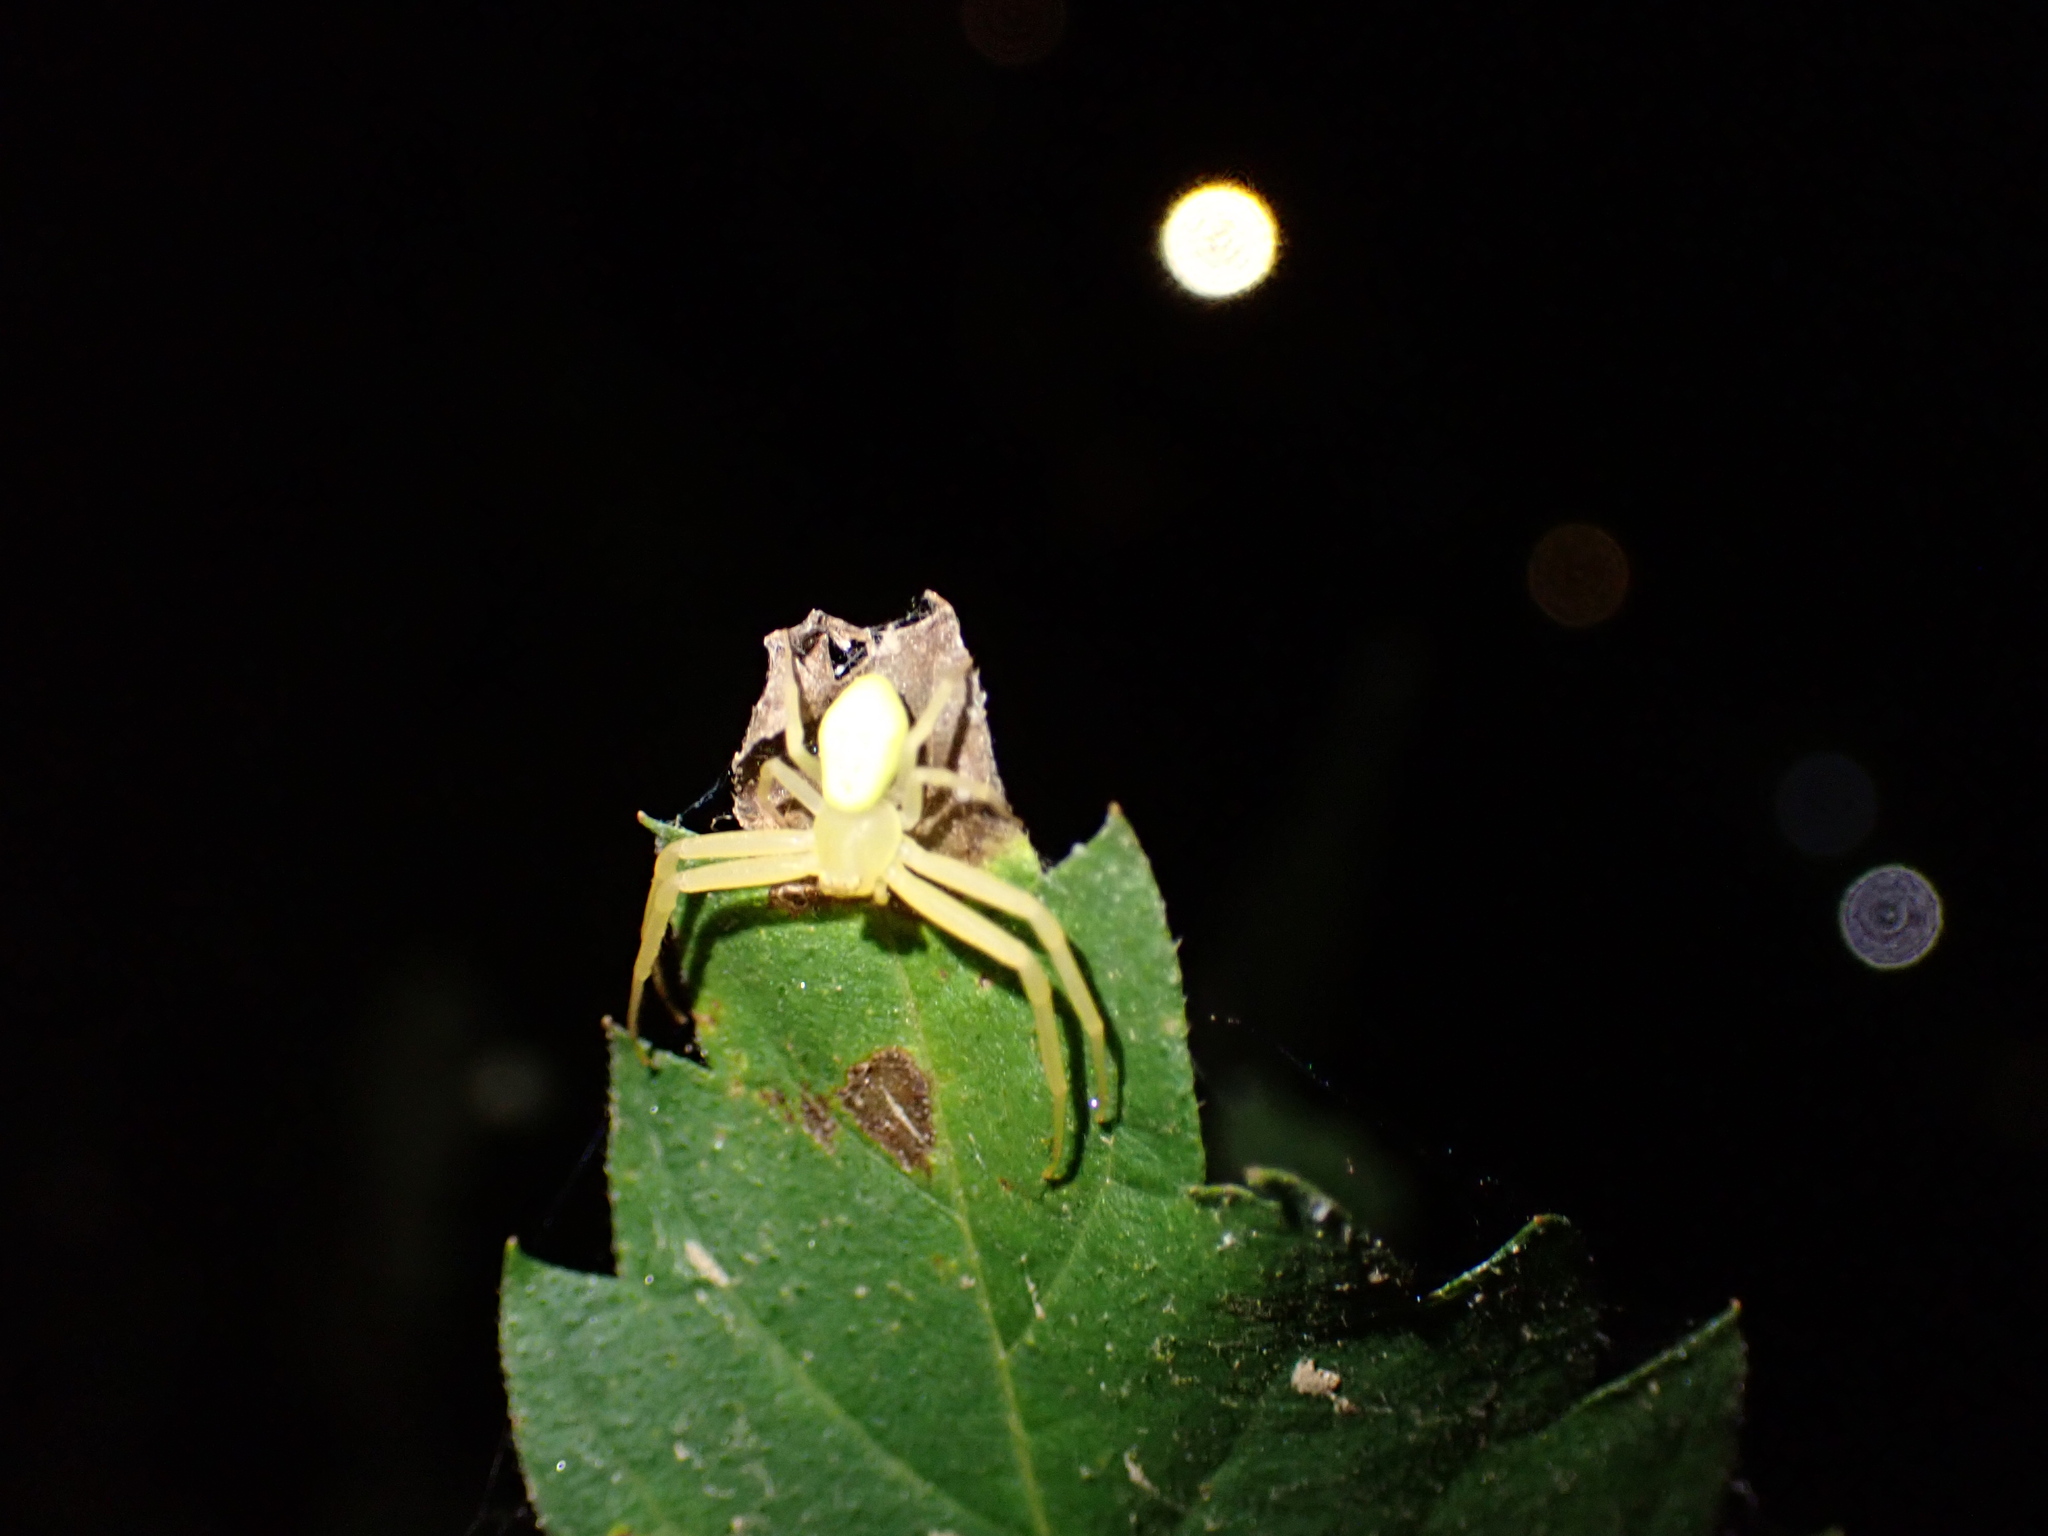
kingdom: Animalia
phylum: Arthropoda
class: Arachnida
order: Araneae
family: Thomisidae
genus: Misumessus
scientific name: Misumessus oblongus
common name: American green crab spider
